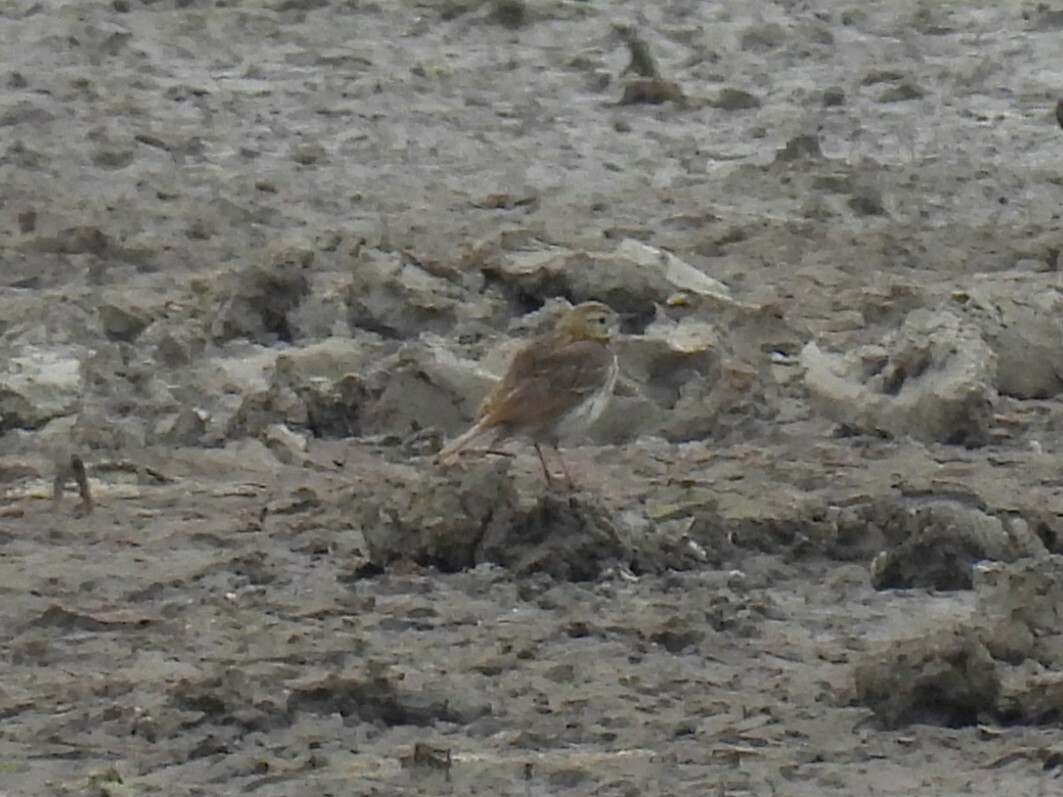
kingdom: Animalia
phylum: Chordata
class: Aves
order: Passeriformes
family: Motacillidae
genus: Anthus
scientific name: Anthus pratensis
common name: Meadow pipit
